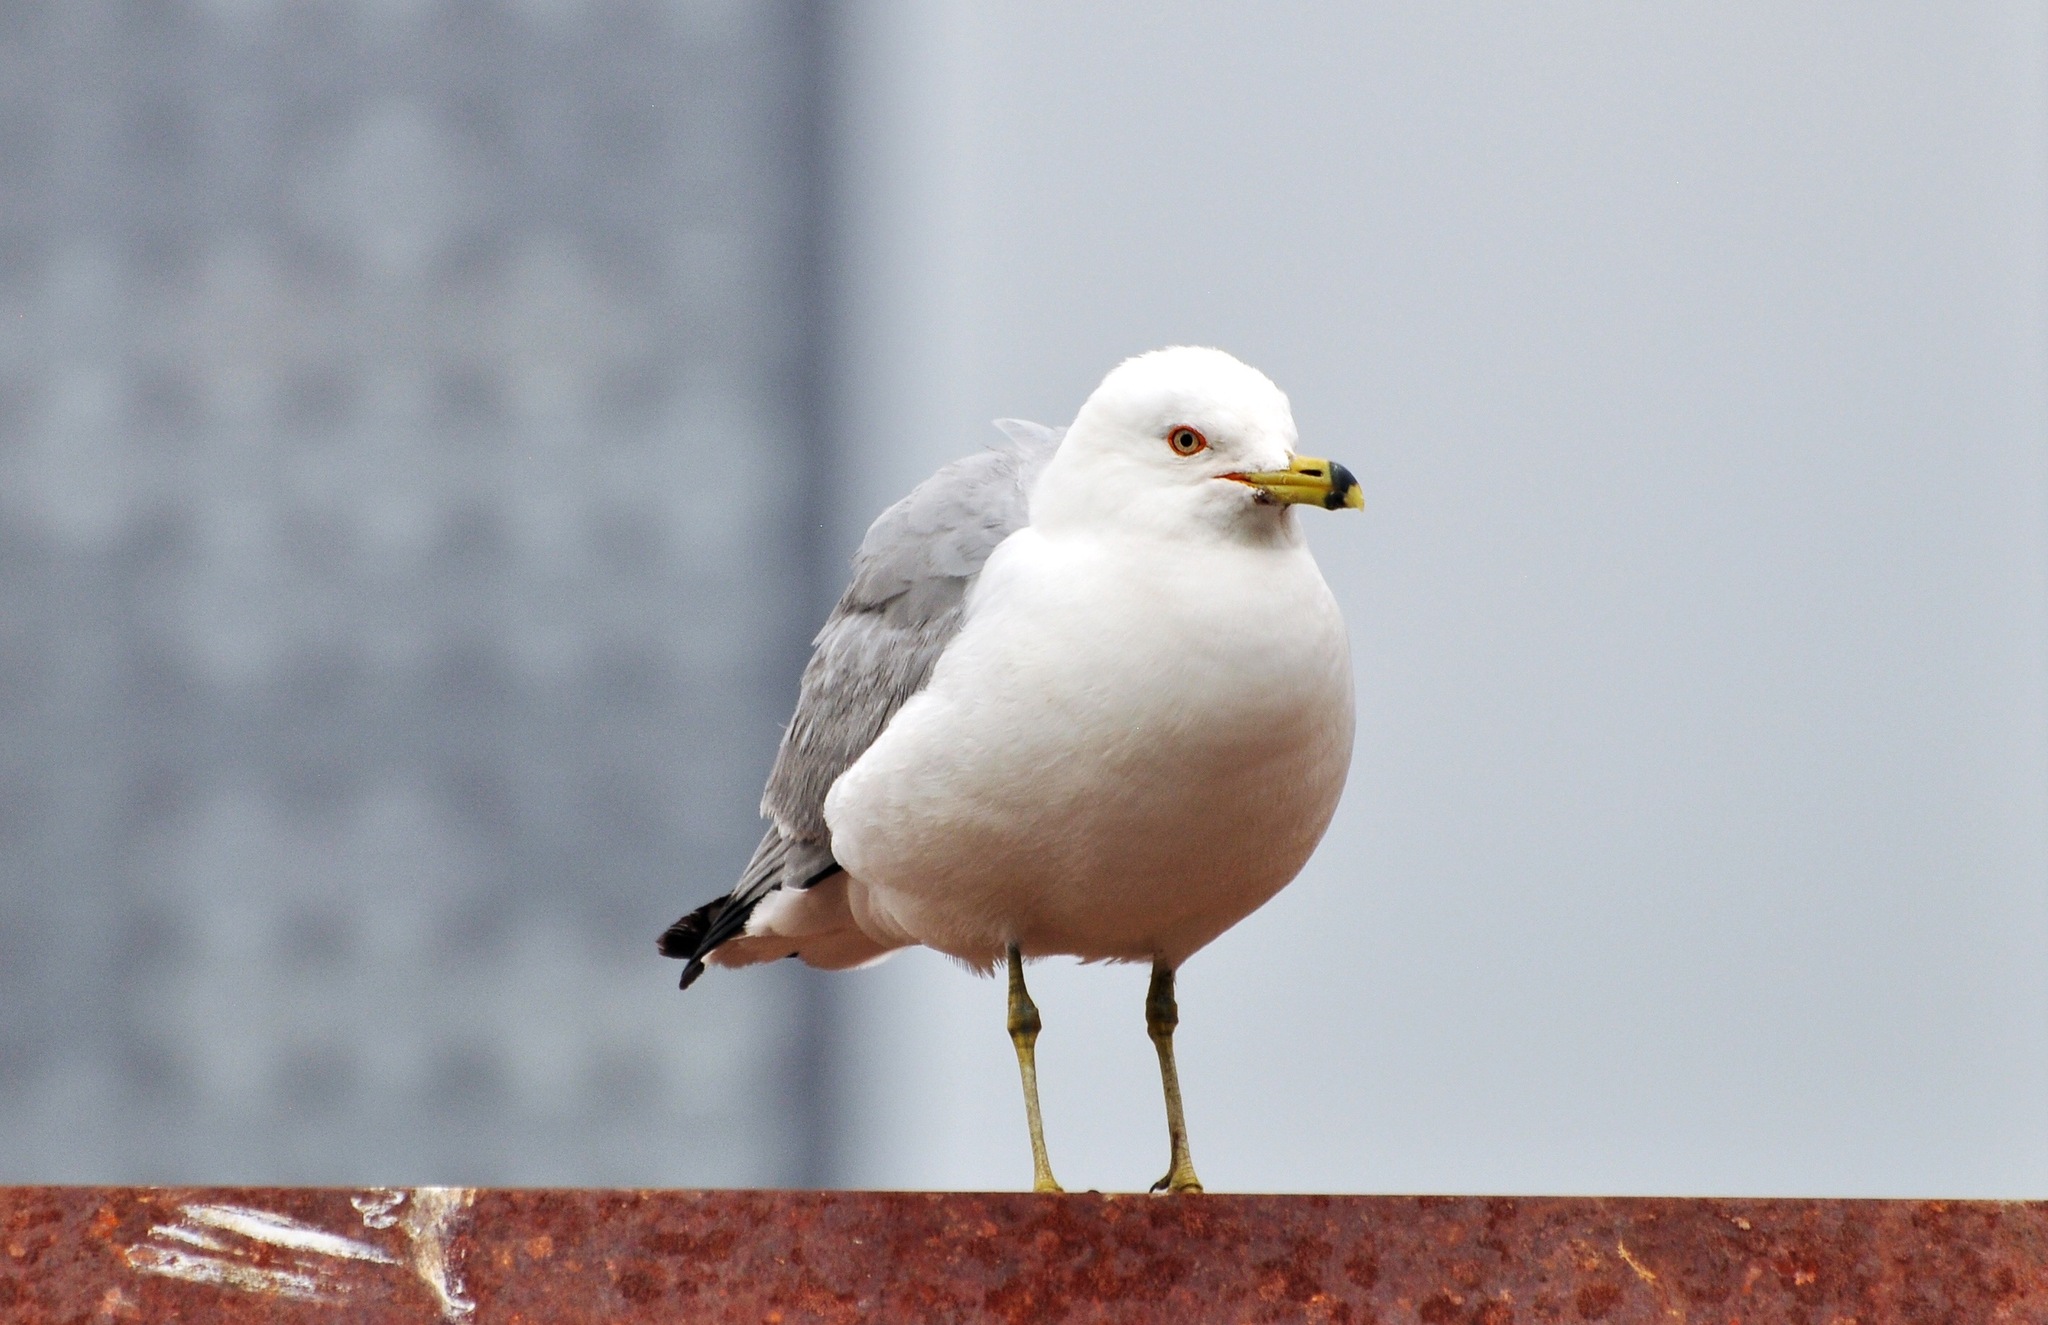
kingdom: Animalia
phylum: Chordata
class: Aves
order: Charadriiformes
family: Laridae
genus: Larus
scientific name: Larus delawarensis
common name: Ring-billed gull
